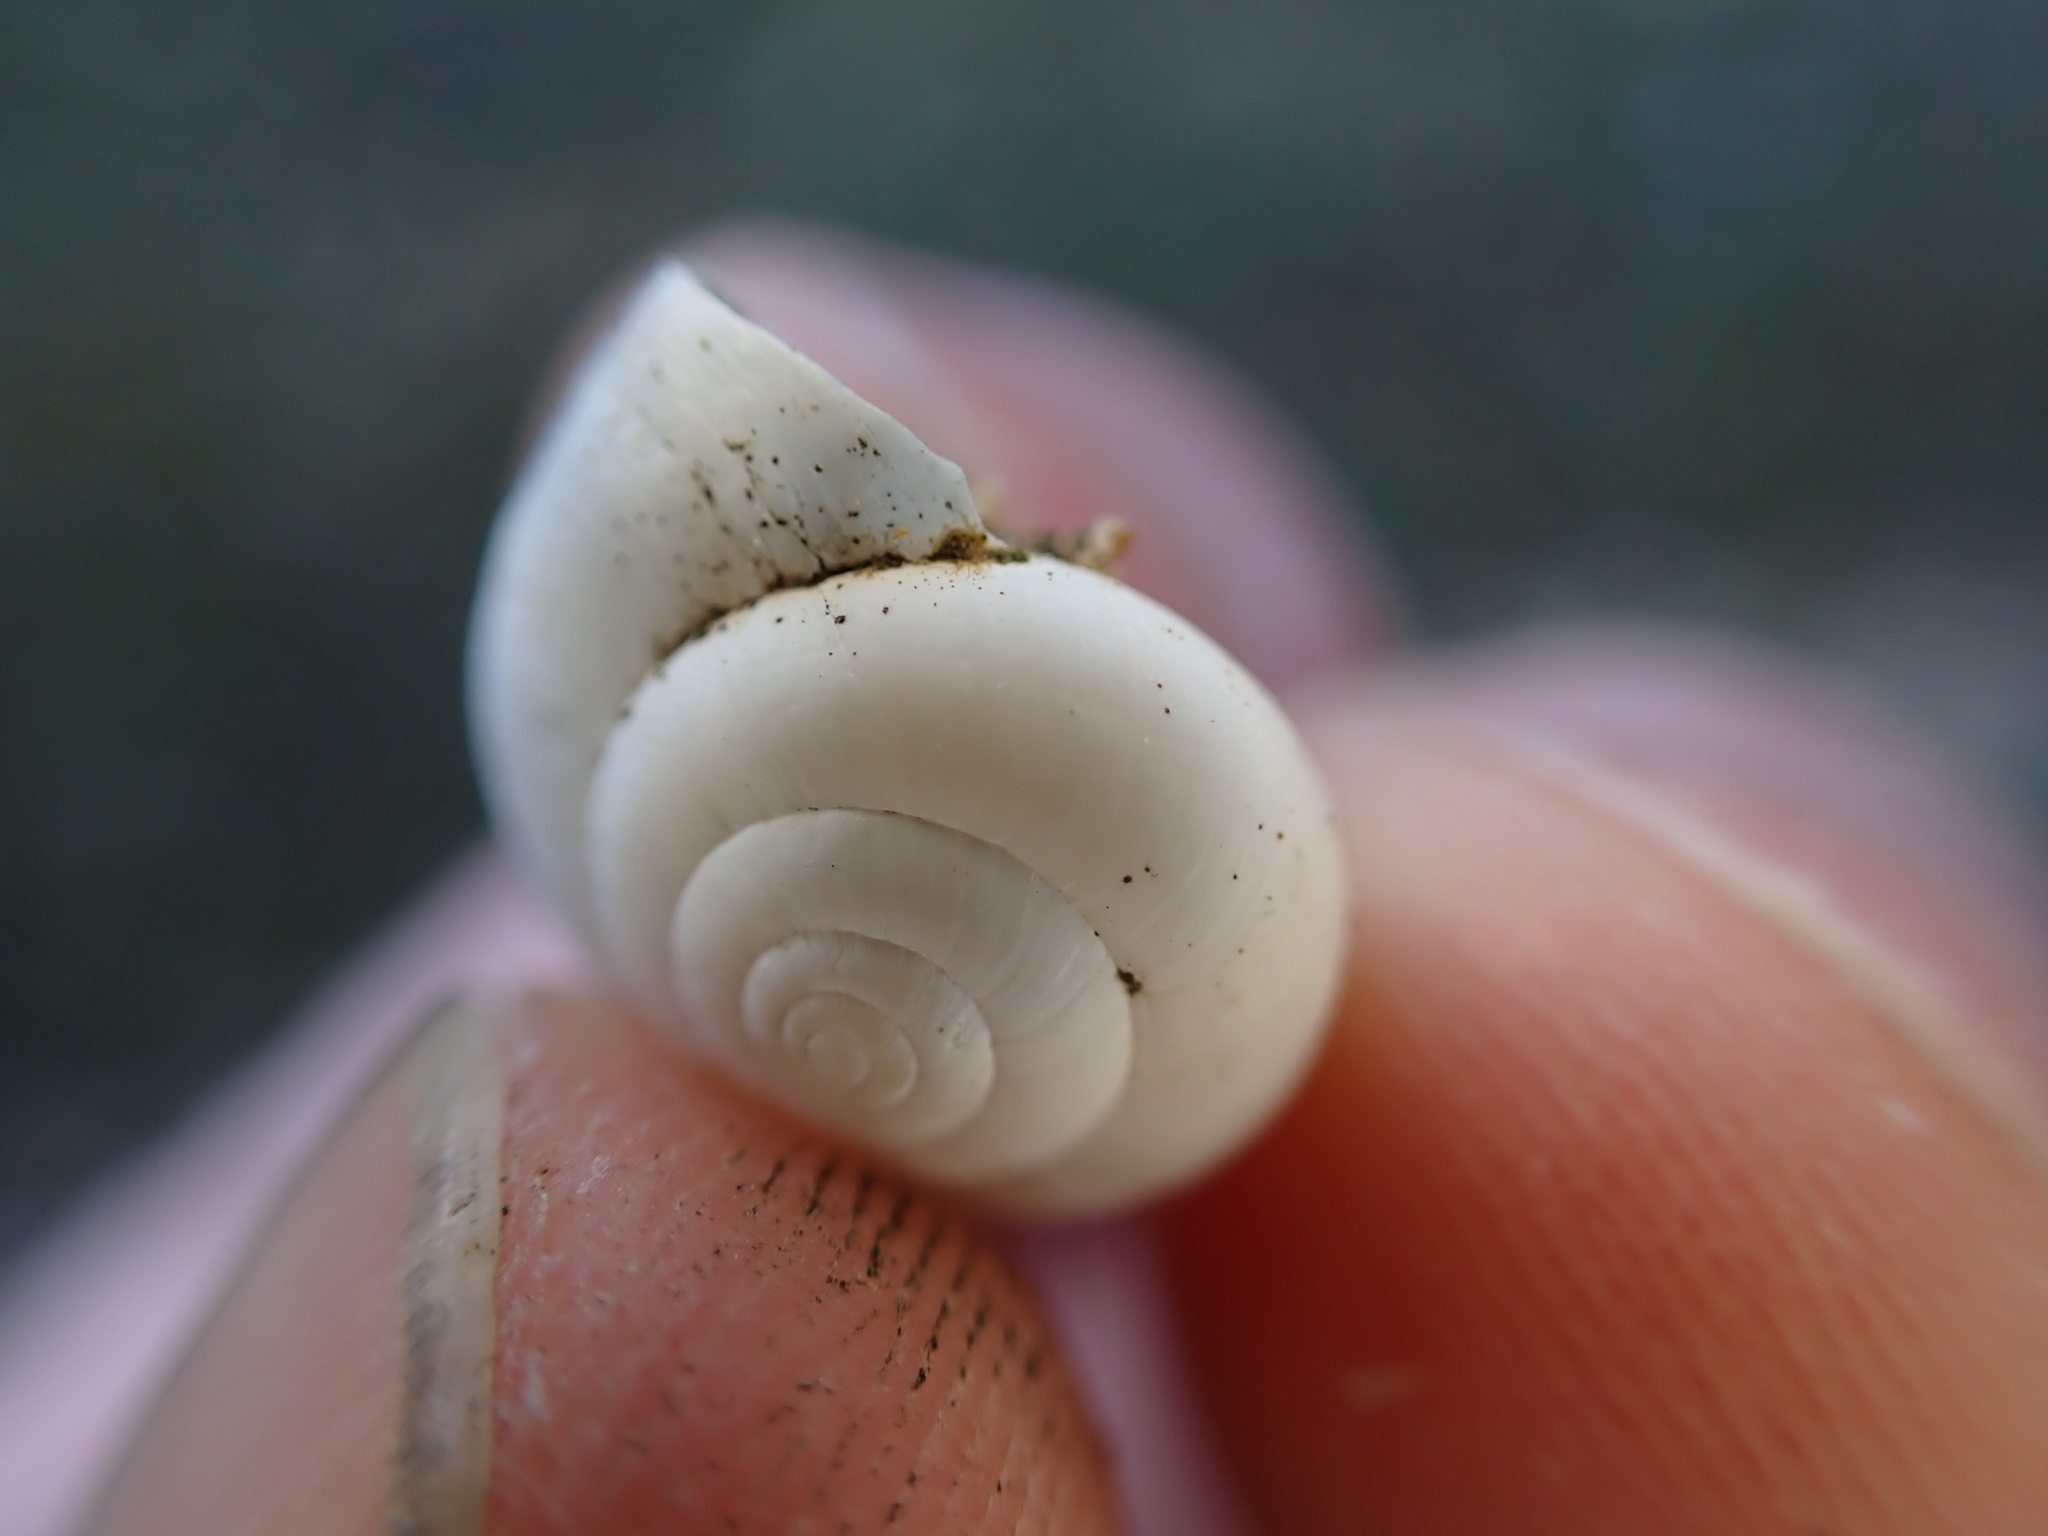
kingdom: Animalia
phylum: Mollusca
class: Gastropoda
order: Stylommatophora
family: Geomitridae
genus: Xeropicta
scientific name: Xeropicta derbentina
